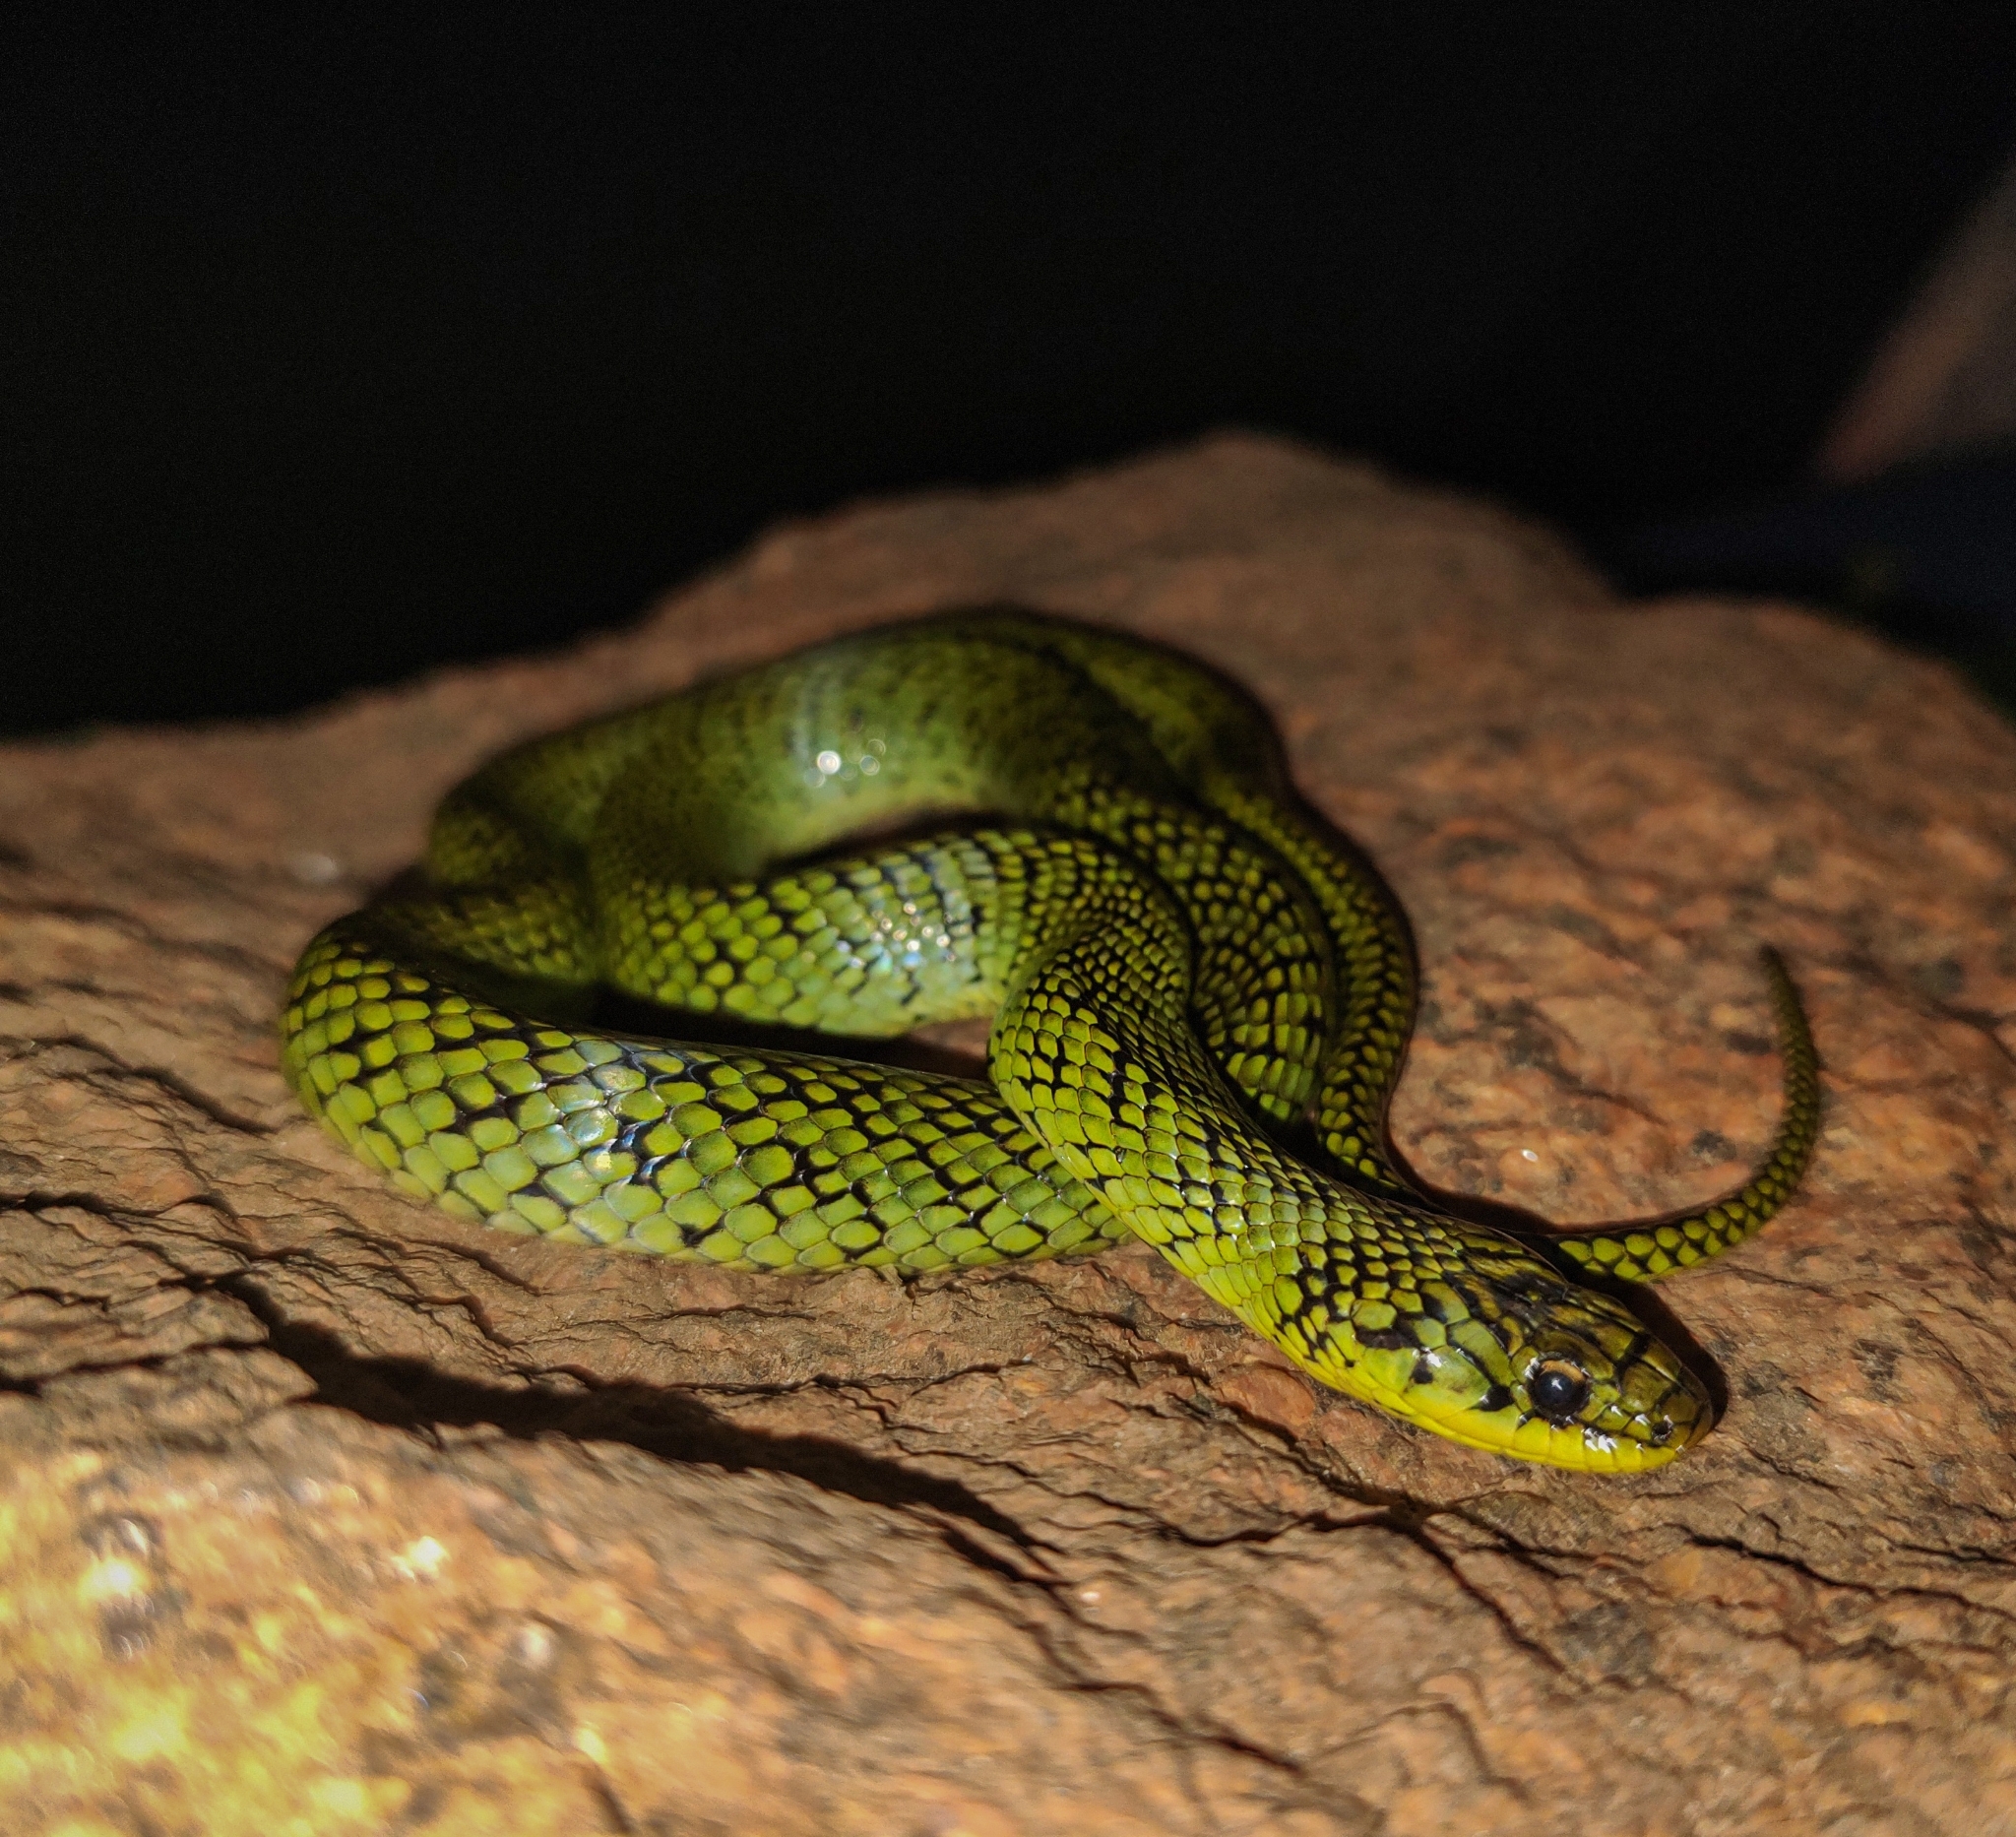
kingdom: Animalia
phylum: Chordata
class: Squamata
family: Colubridae
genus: Erythrolamprus
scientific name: Erythrolamprus poecilogyrus
